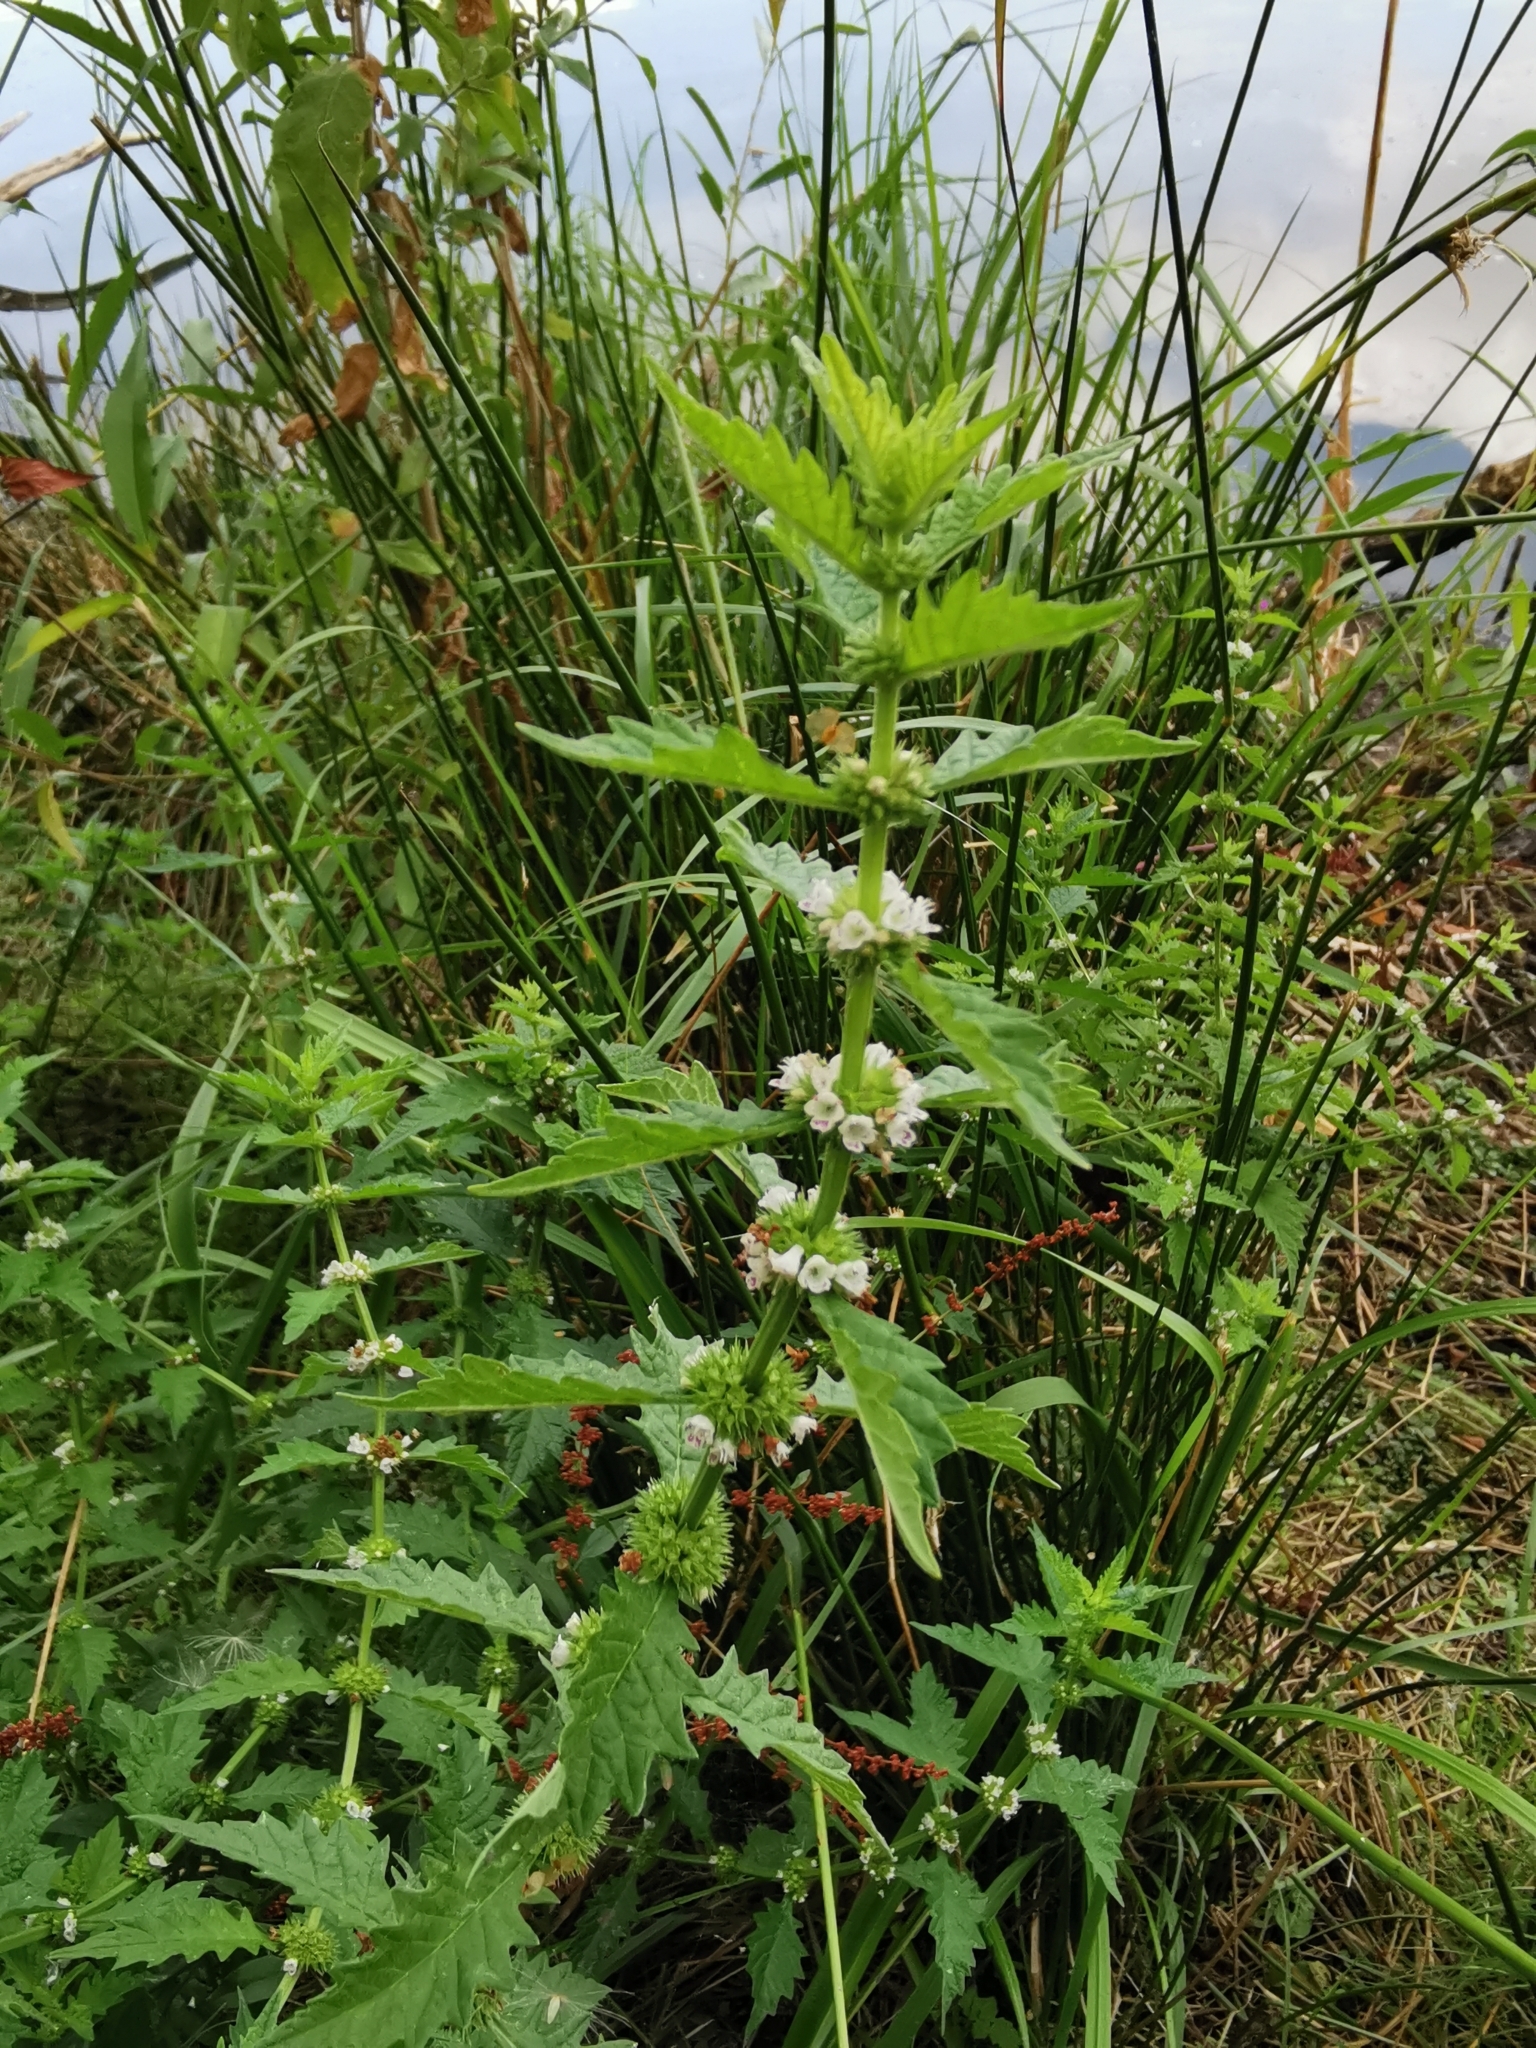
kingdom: Plantae
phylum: Tracheophyta
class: Magnoliopsida
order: Lamiales
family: Lamiaceae
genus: Lycopus
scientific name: Lycopus europaeus
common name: European bugleweed
